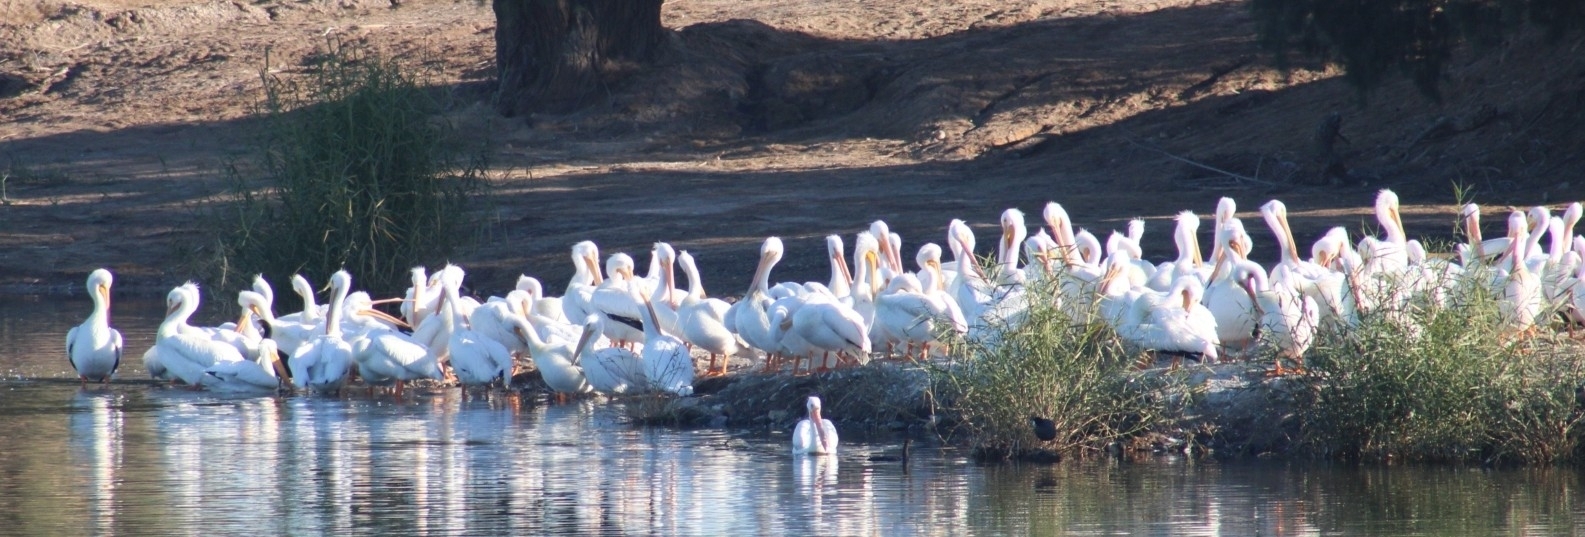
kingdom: Animalia
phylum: Chordata
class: Aves
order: Pelecaniformes
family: Pelecanidae
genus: Pelecanus
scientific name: Pelecanus erythrorhynchos
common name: American white pelican
